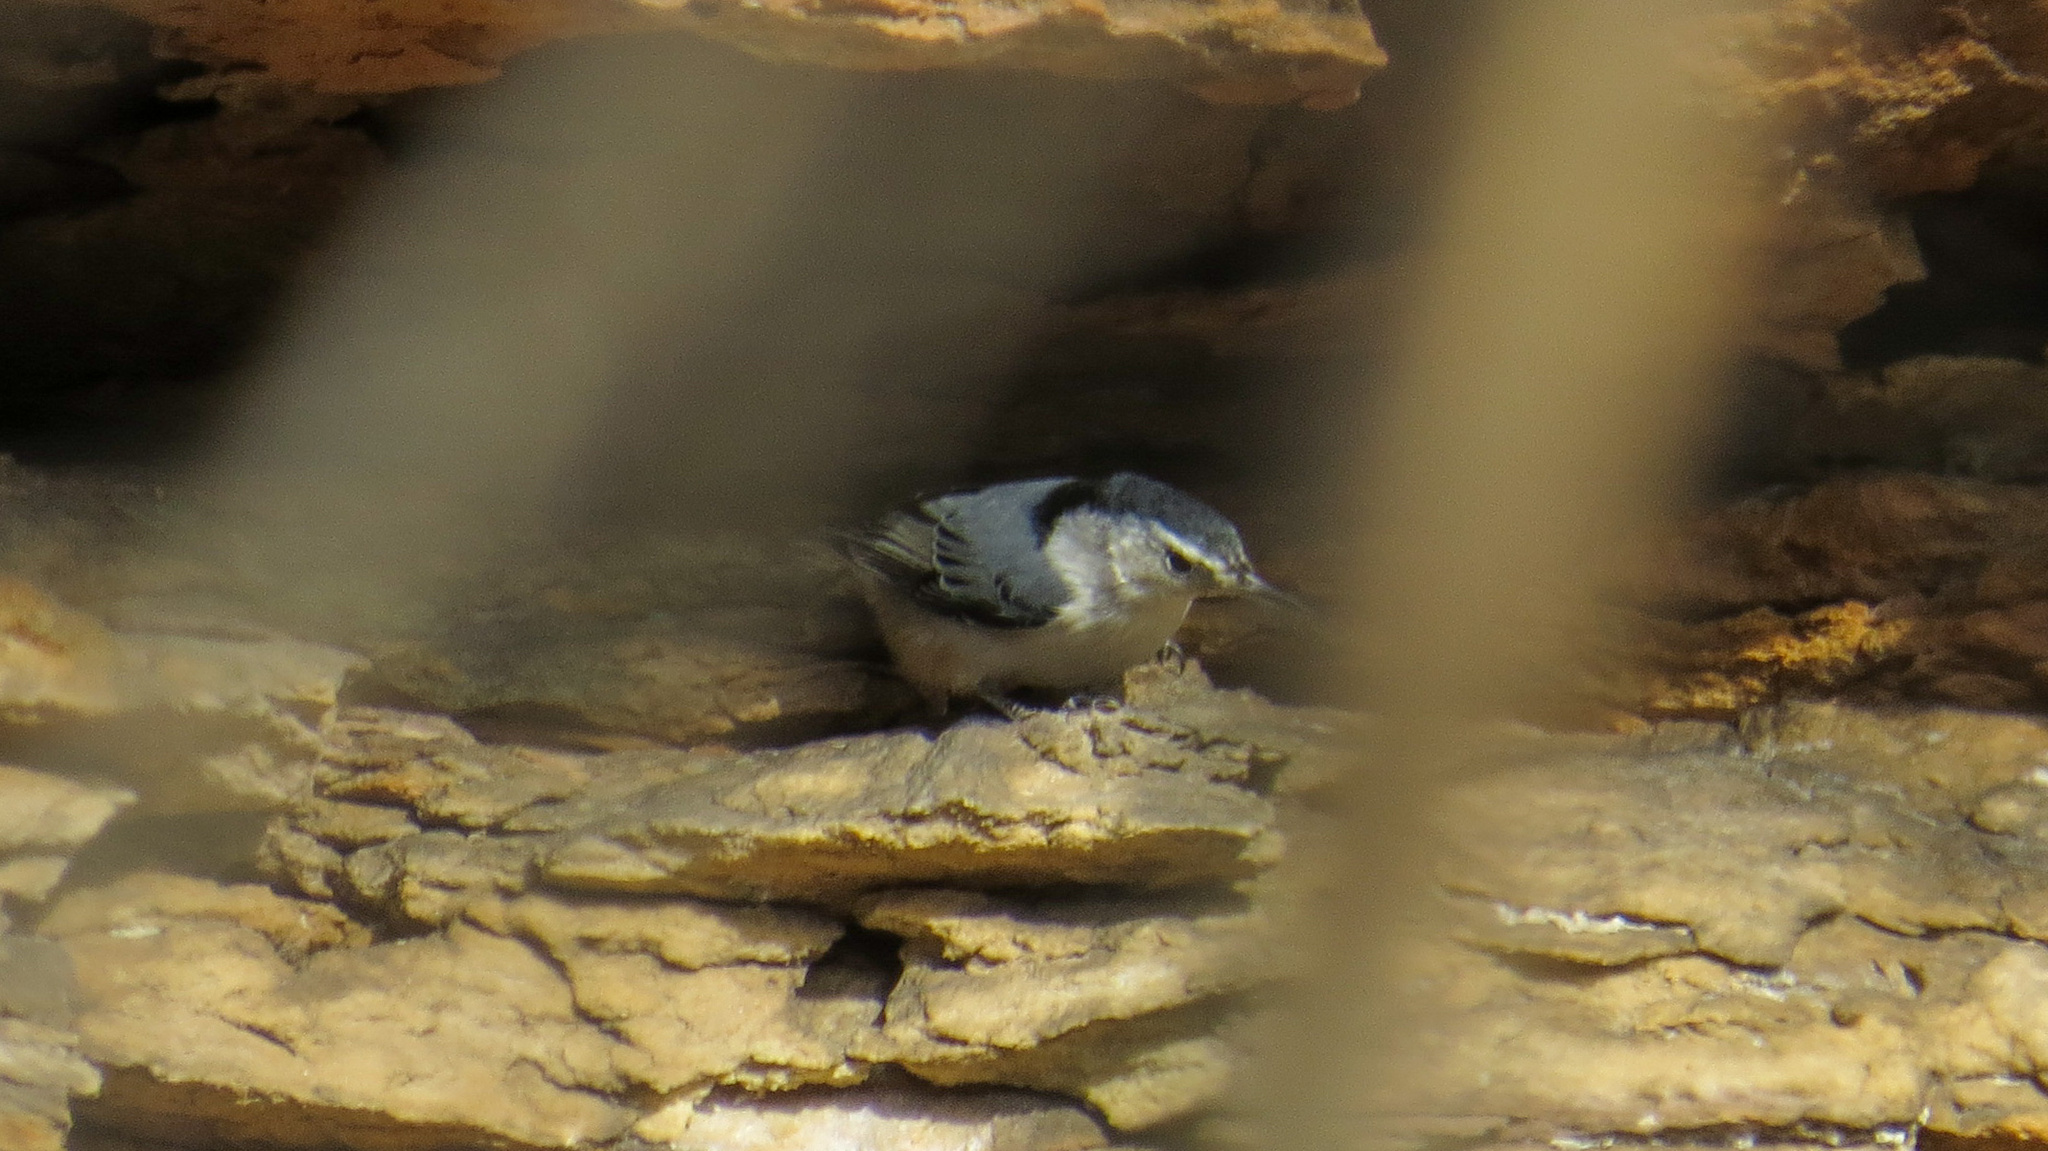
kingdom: Animalia
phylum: Chordata
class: Aves
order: Passeriformes
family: Sittidae
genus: Sitta
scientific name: Sitta carolinensis
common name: White-breasted nuthatch
